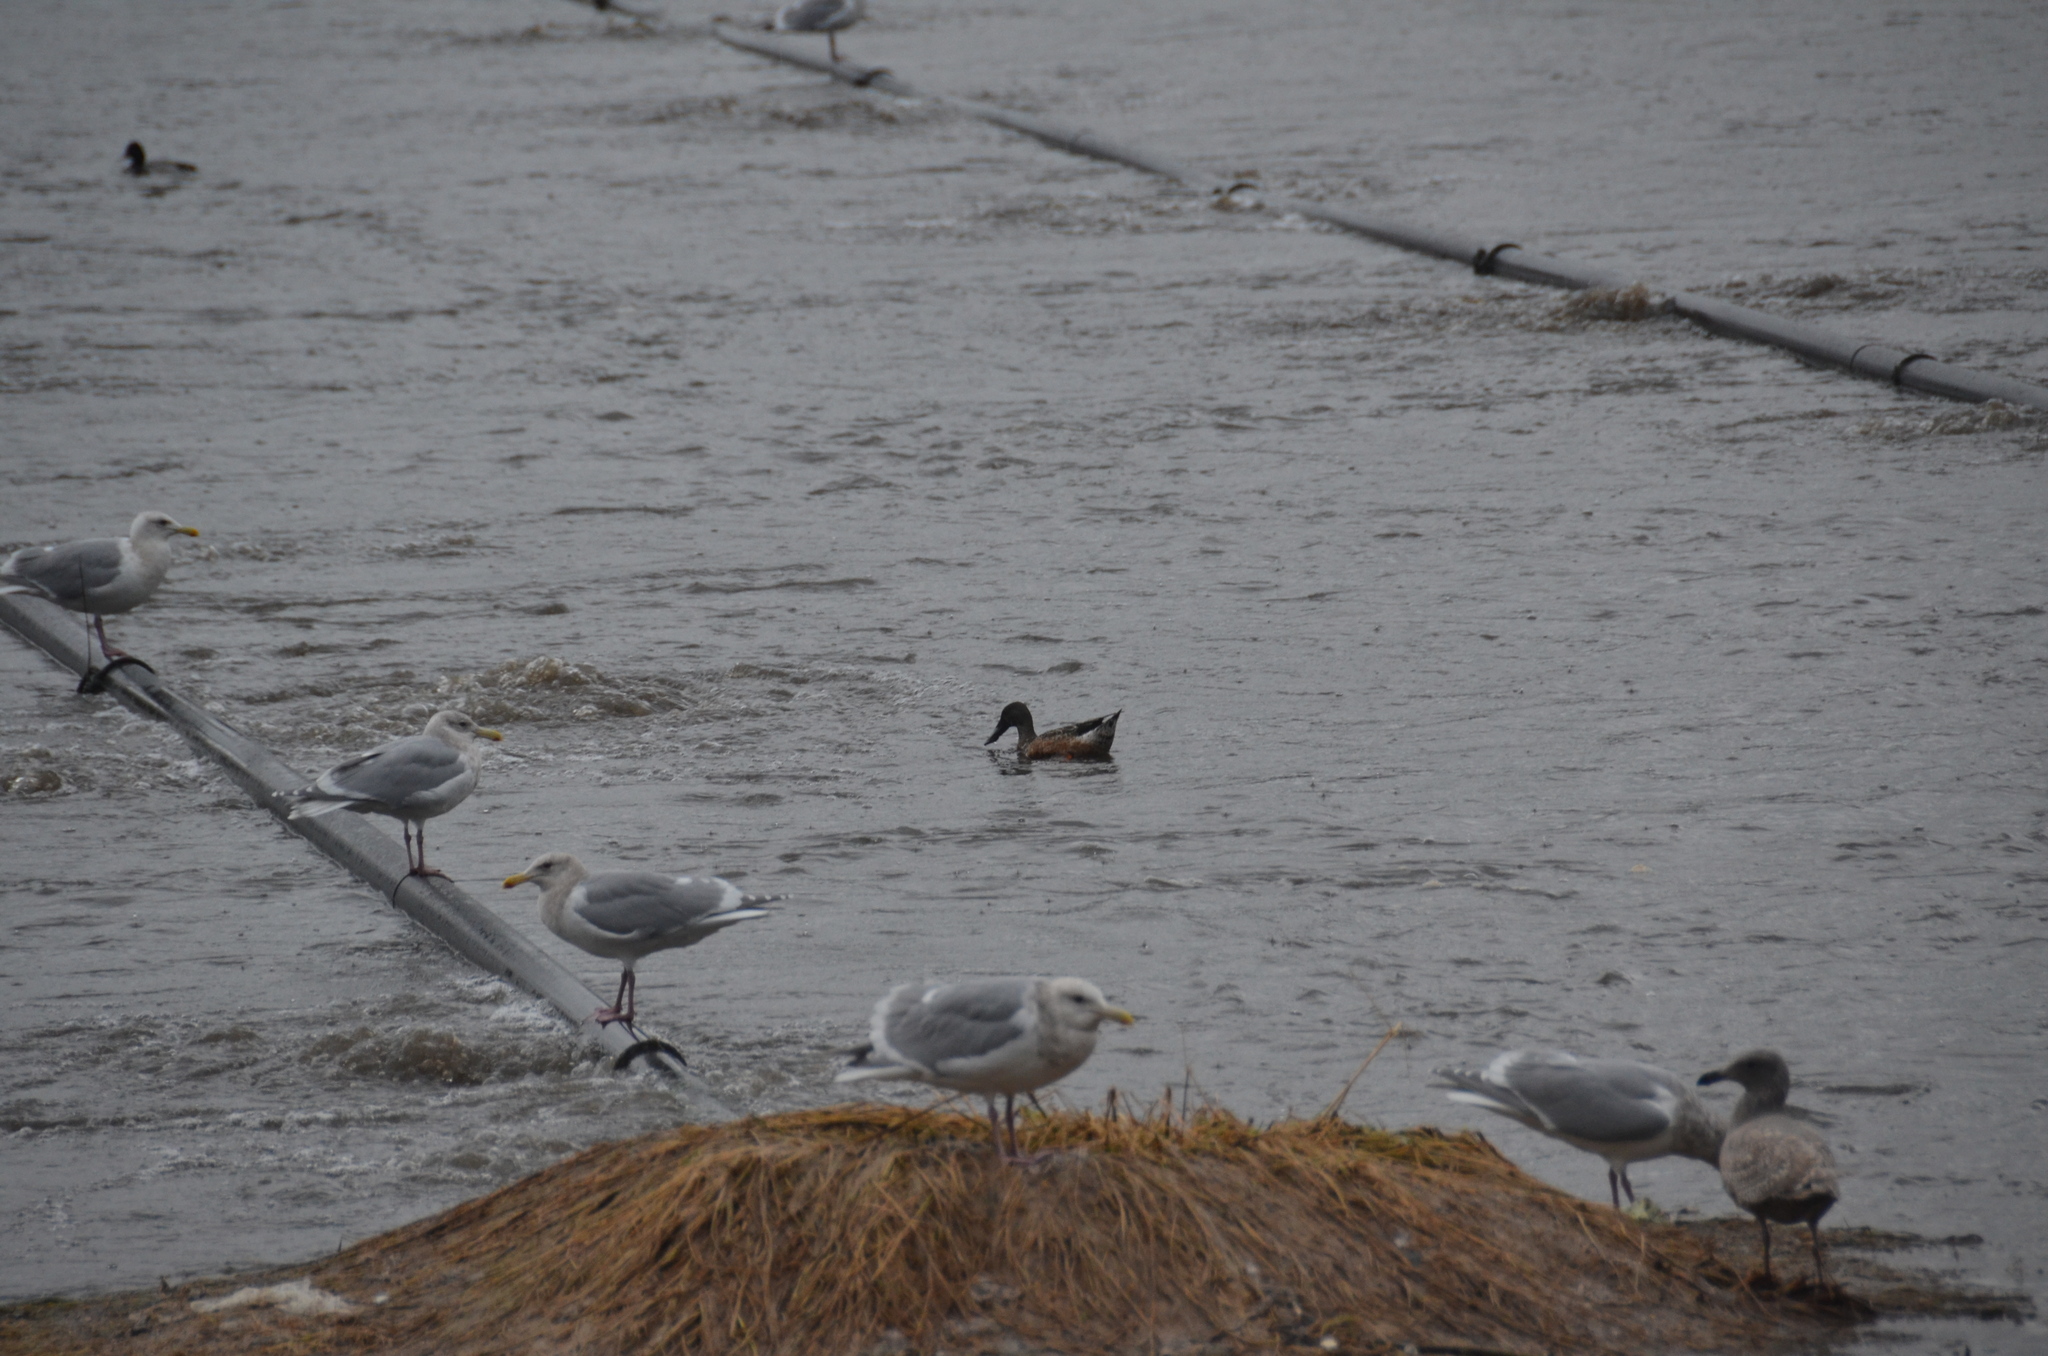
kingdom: Animalia
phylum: Chordata
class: Aves
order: Anseriformes
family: Anatidae
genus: Spatula
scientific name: Spatula clypeata
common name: Northern shoveler
